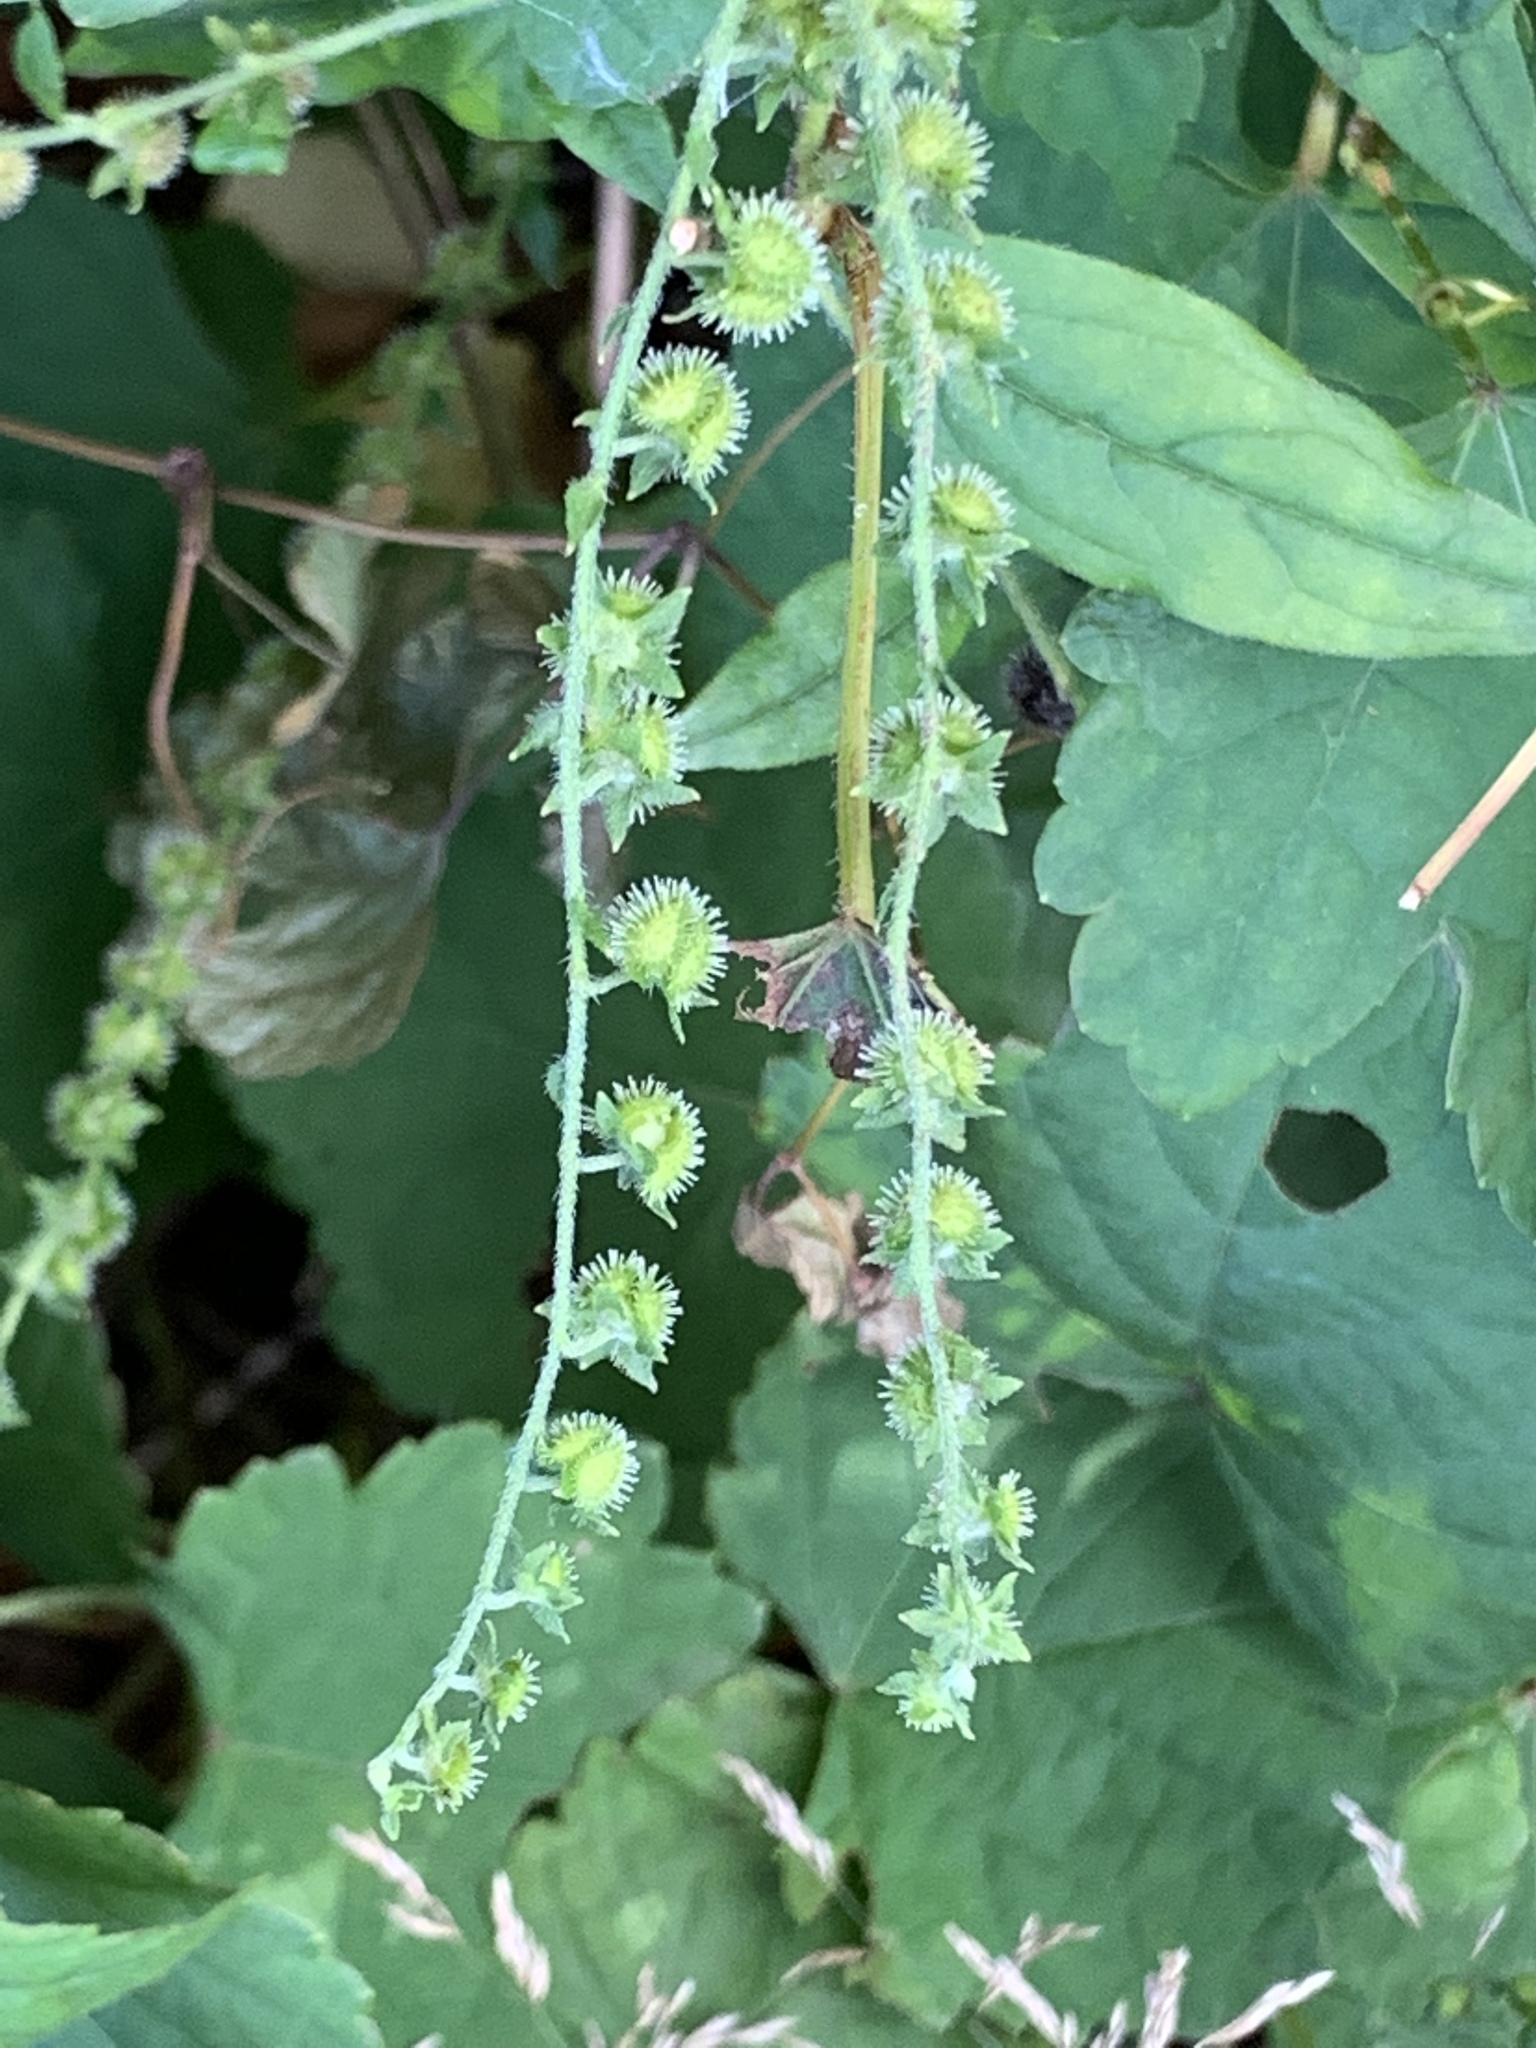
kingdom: Plantae
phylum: Tracheophyta
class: Magnoliopsida
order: Boraginales
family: Boraginaceae
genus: Hackelia
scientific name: Hackelia virginiana
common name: Beggar's-lice
